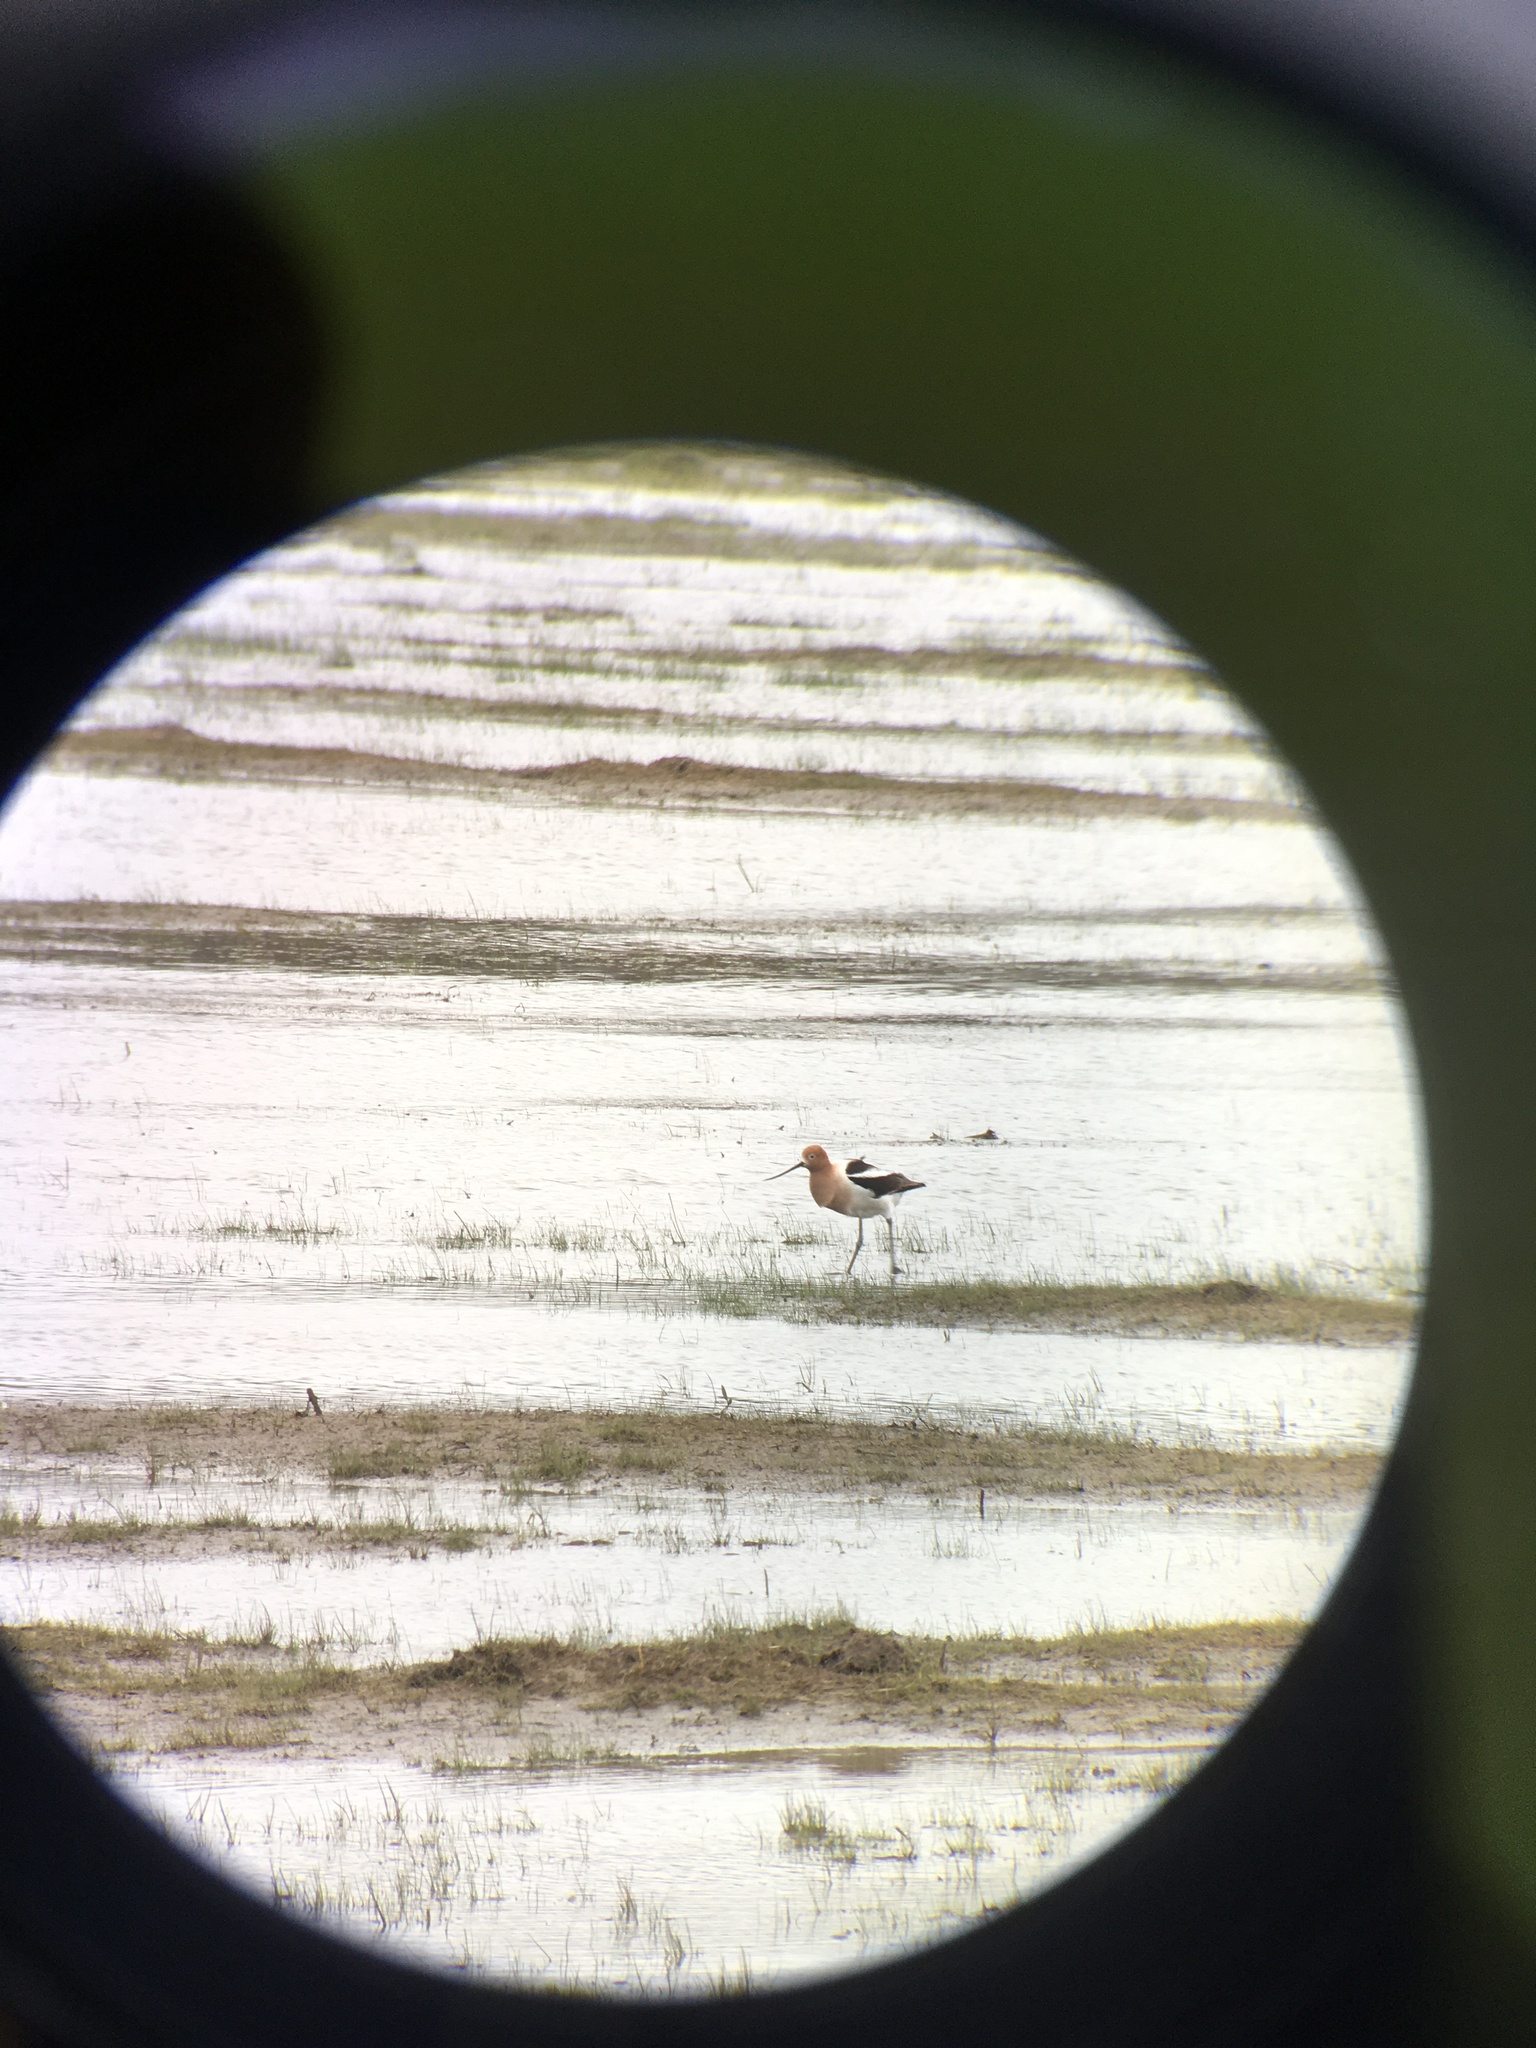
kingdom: Animalia
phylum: Chordata
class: Aves
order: Charadriiformes
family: Recurvirostridae
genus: Recurvirostra
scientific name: Recurvirostra americana
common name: American avocet
